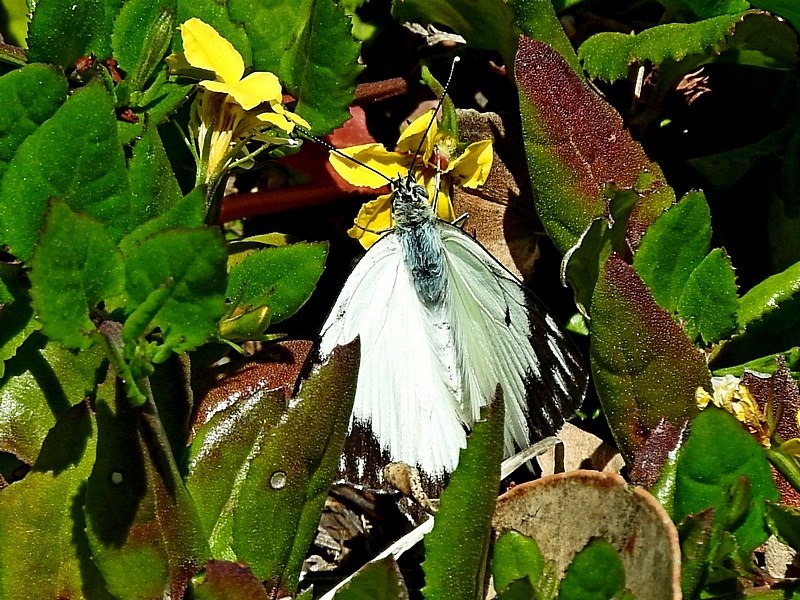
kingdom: Animalia
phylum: Arthropoda
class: Insecta
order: Lepidoptera
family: Pieridae
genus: Belenois
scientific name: Belenois java
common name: Caper white
